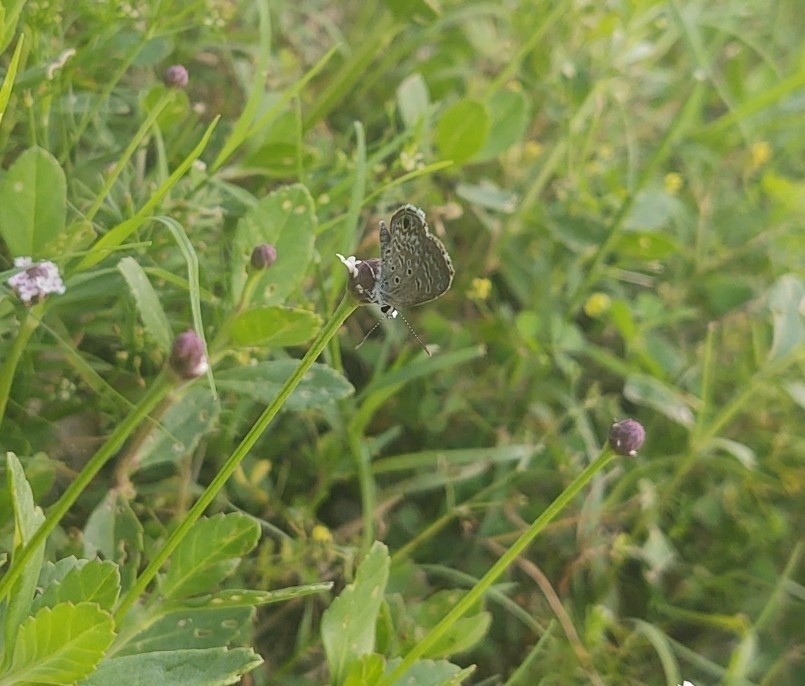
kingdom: Animalia
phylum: Arthropoda
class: Insecta
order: Lepidoptera
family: Lycaenidae
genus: Hemiargus
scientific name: Hemiargus ceraunus
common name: Ceraunus blue
